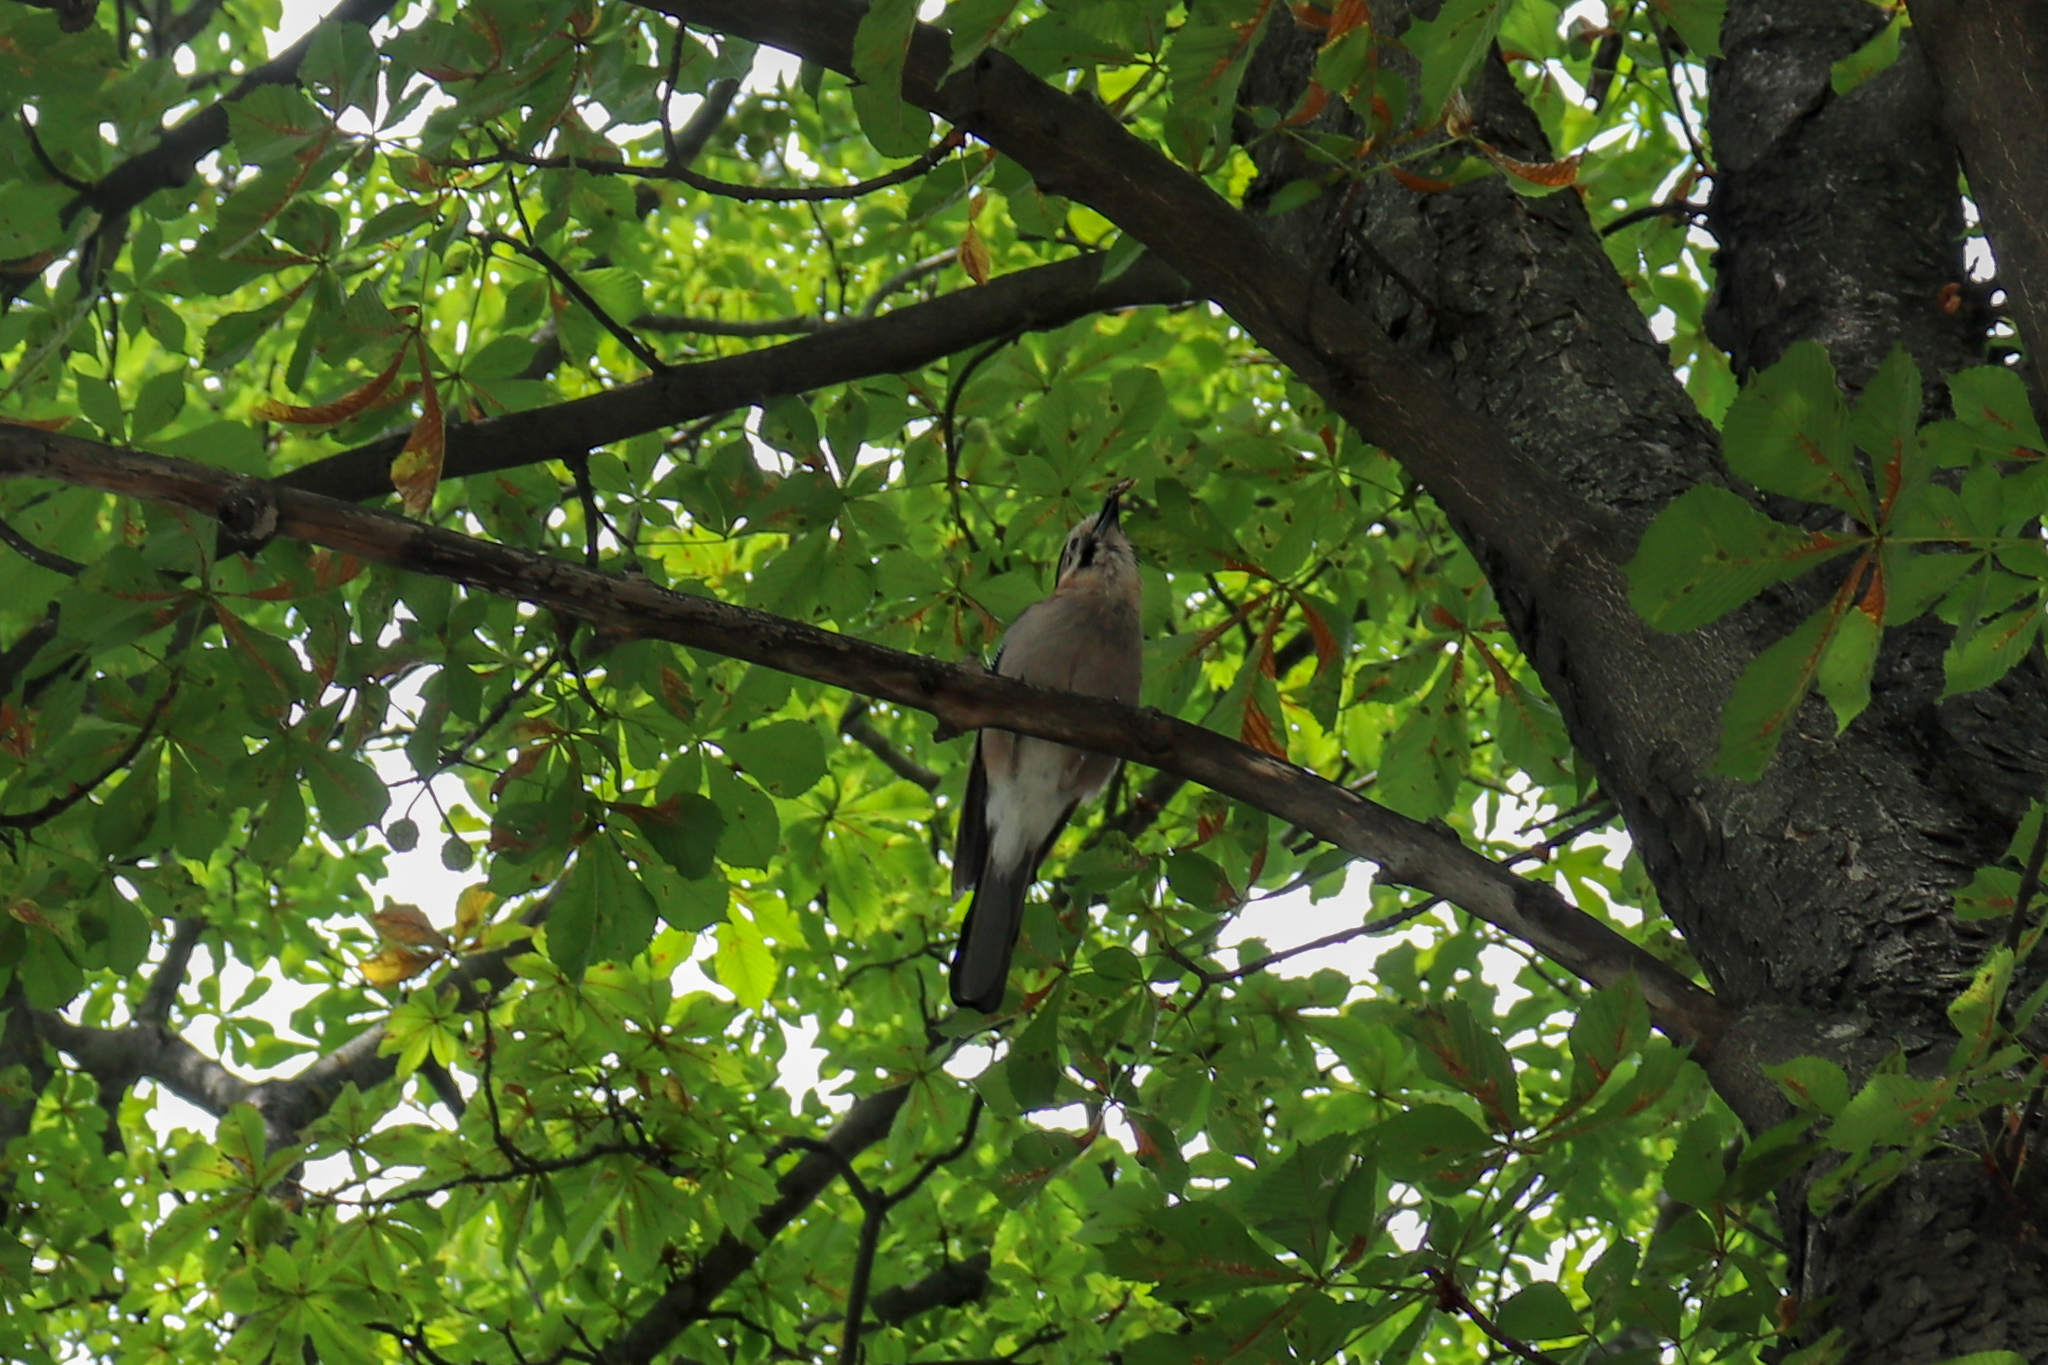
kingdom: Animalia
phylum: Chordata
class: Aves
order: Passeriformes
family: Corvidae
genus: Garrulus
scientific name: Garrulus glandarius
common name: Eurasian jay
